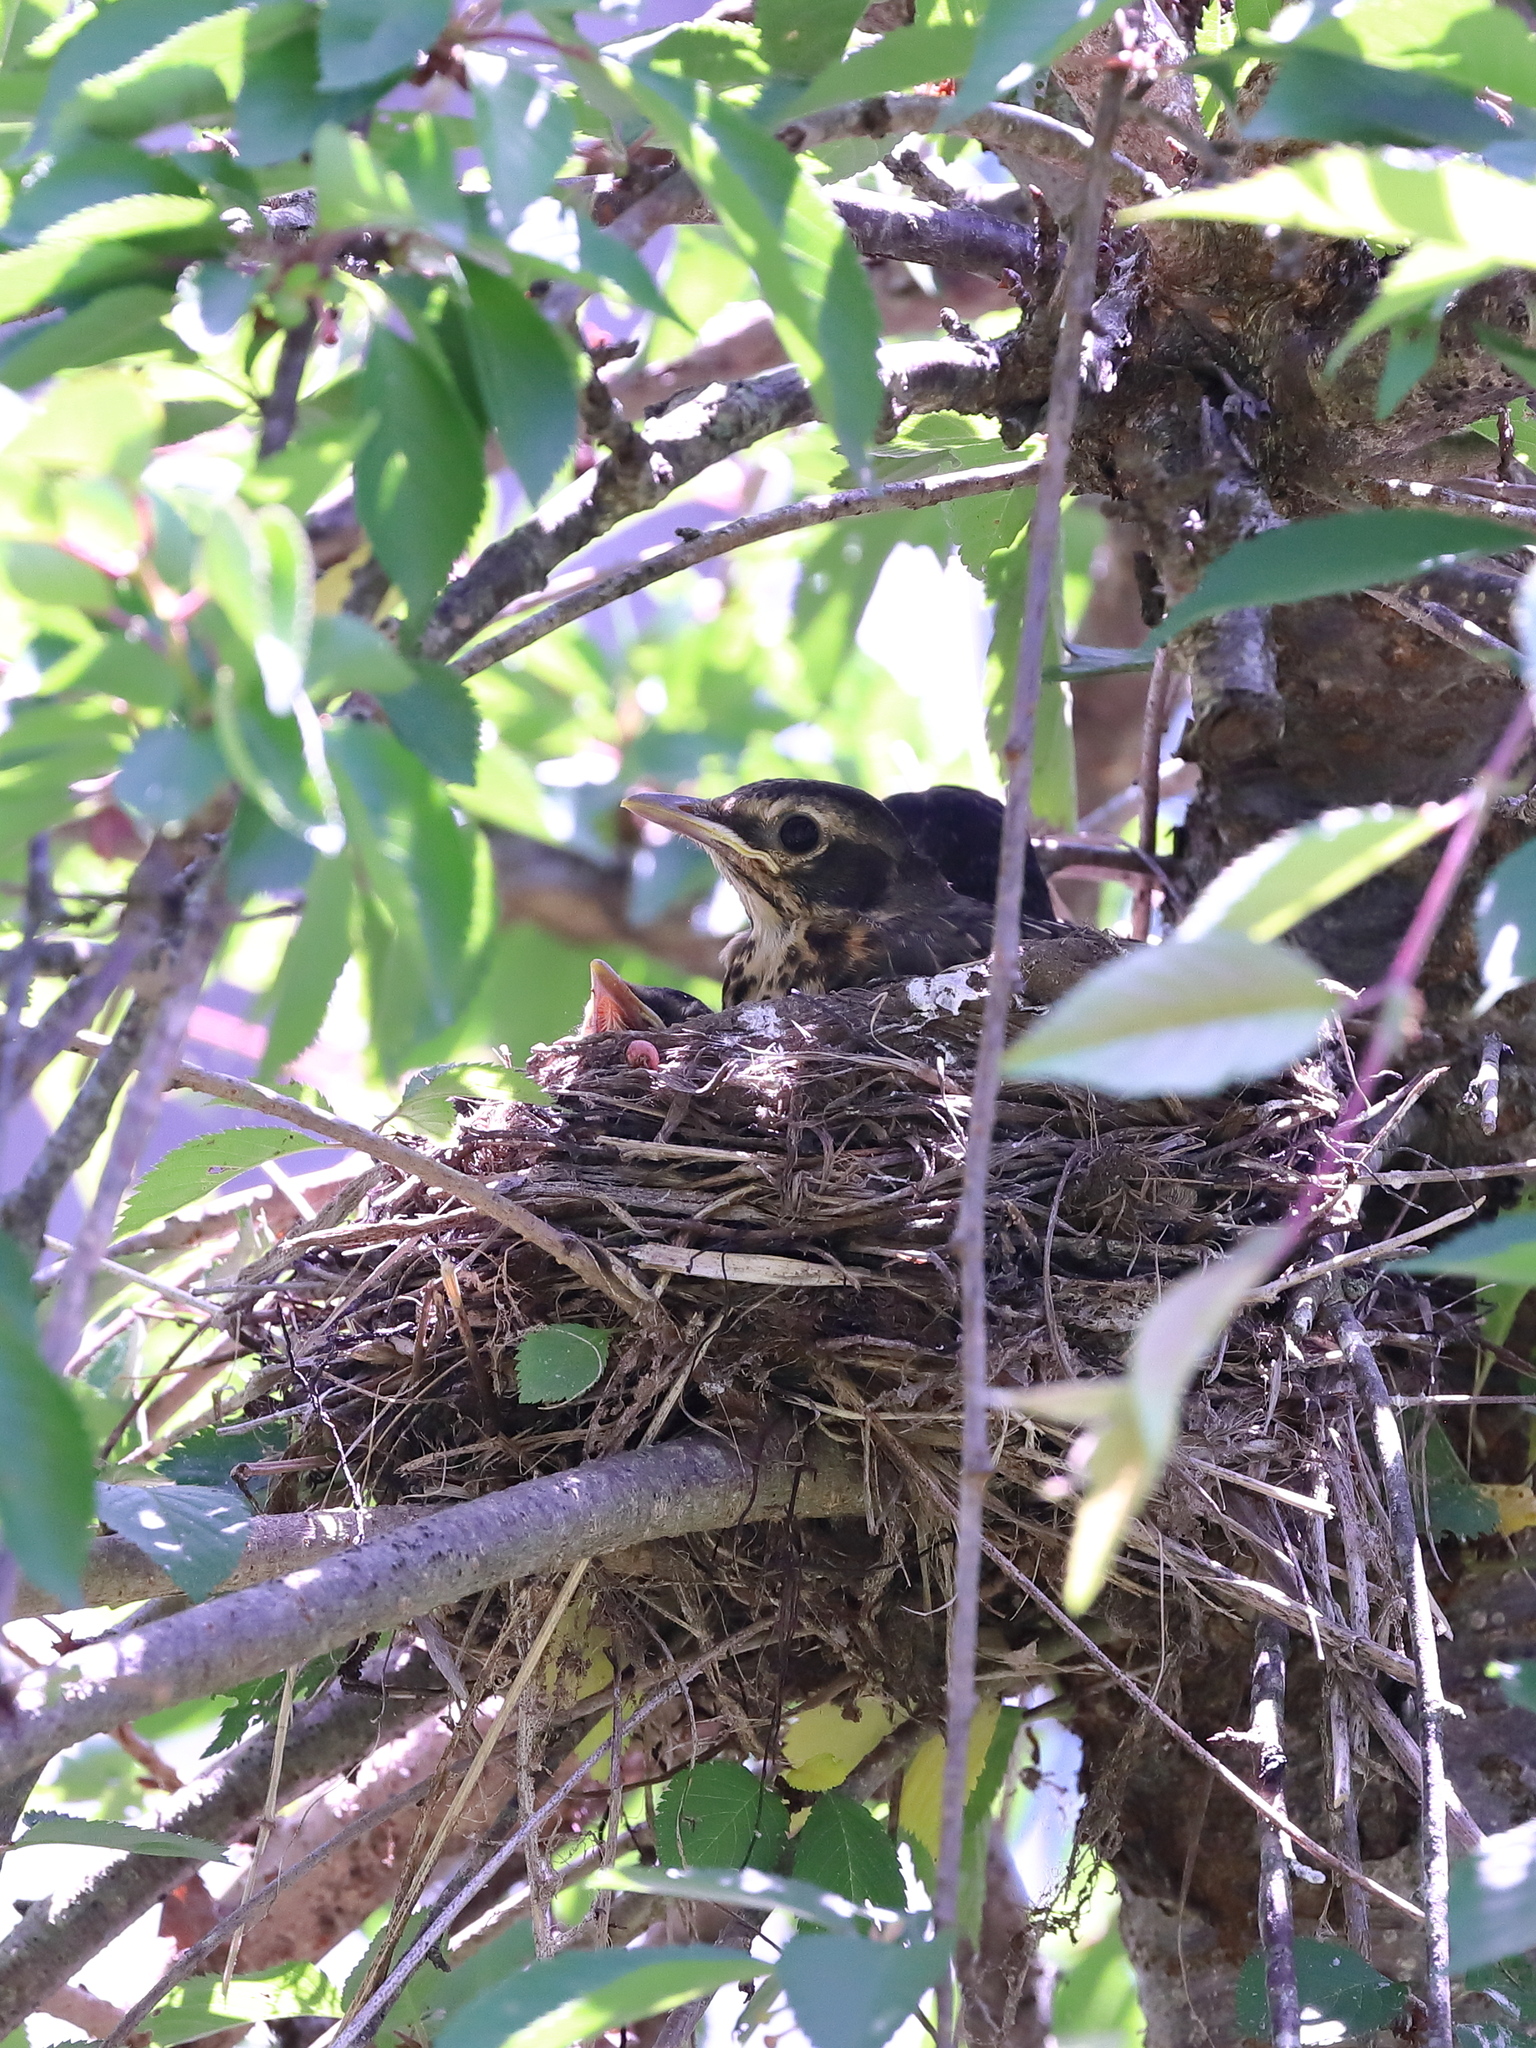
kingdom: Animalia
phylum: Chordata
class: Aves
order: Passeriformes
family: Turdidae
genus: Turdus
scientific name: Turdus migratorius
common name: American robin
